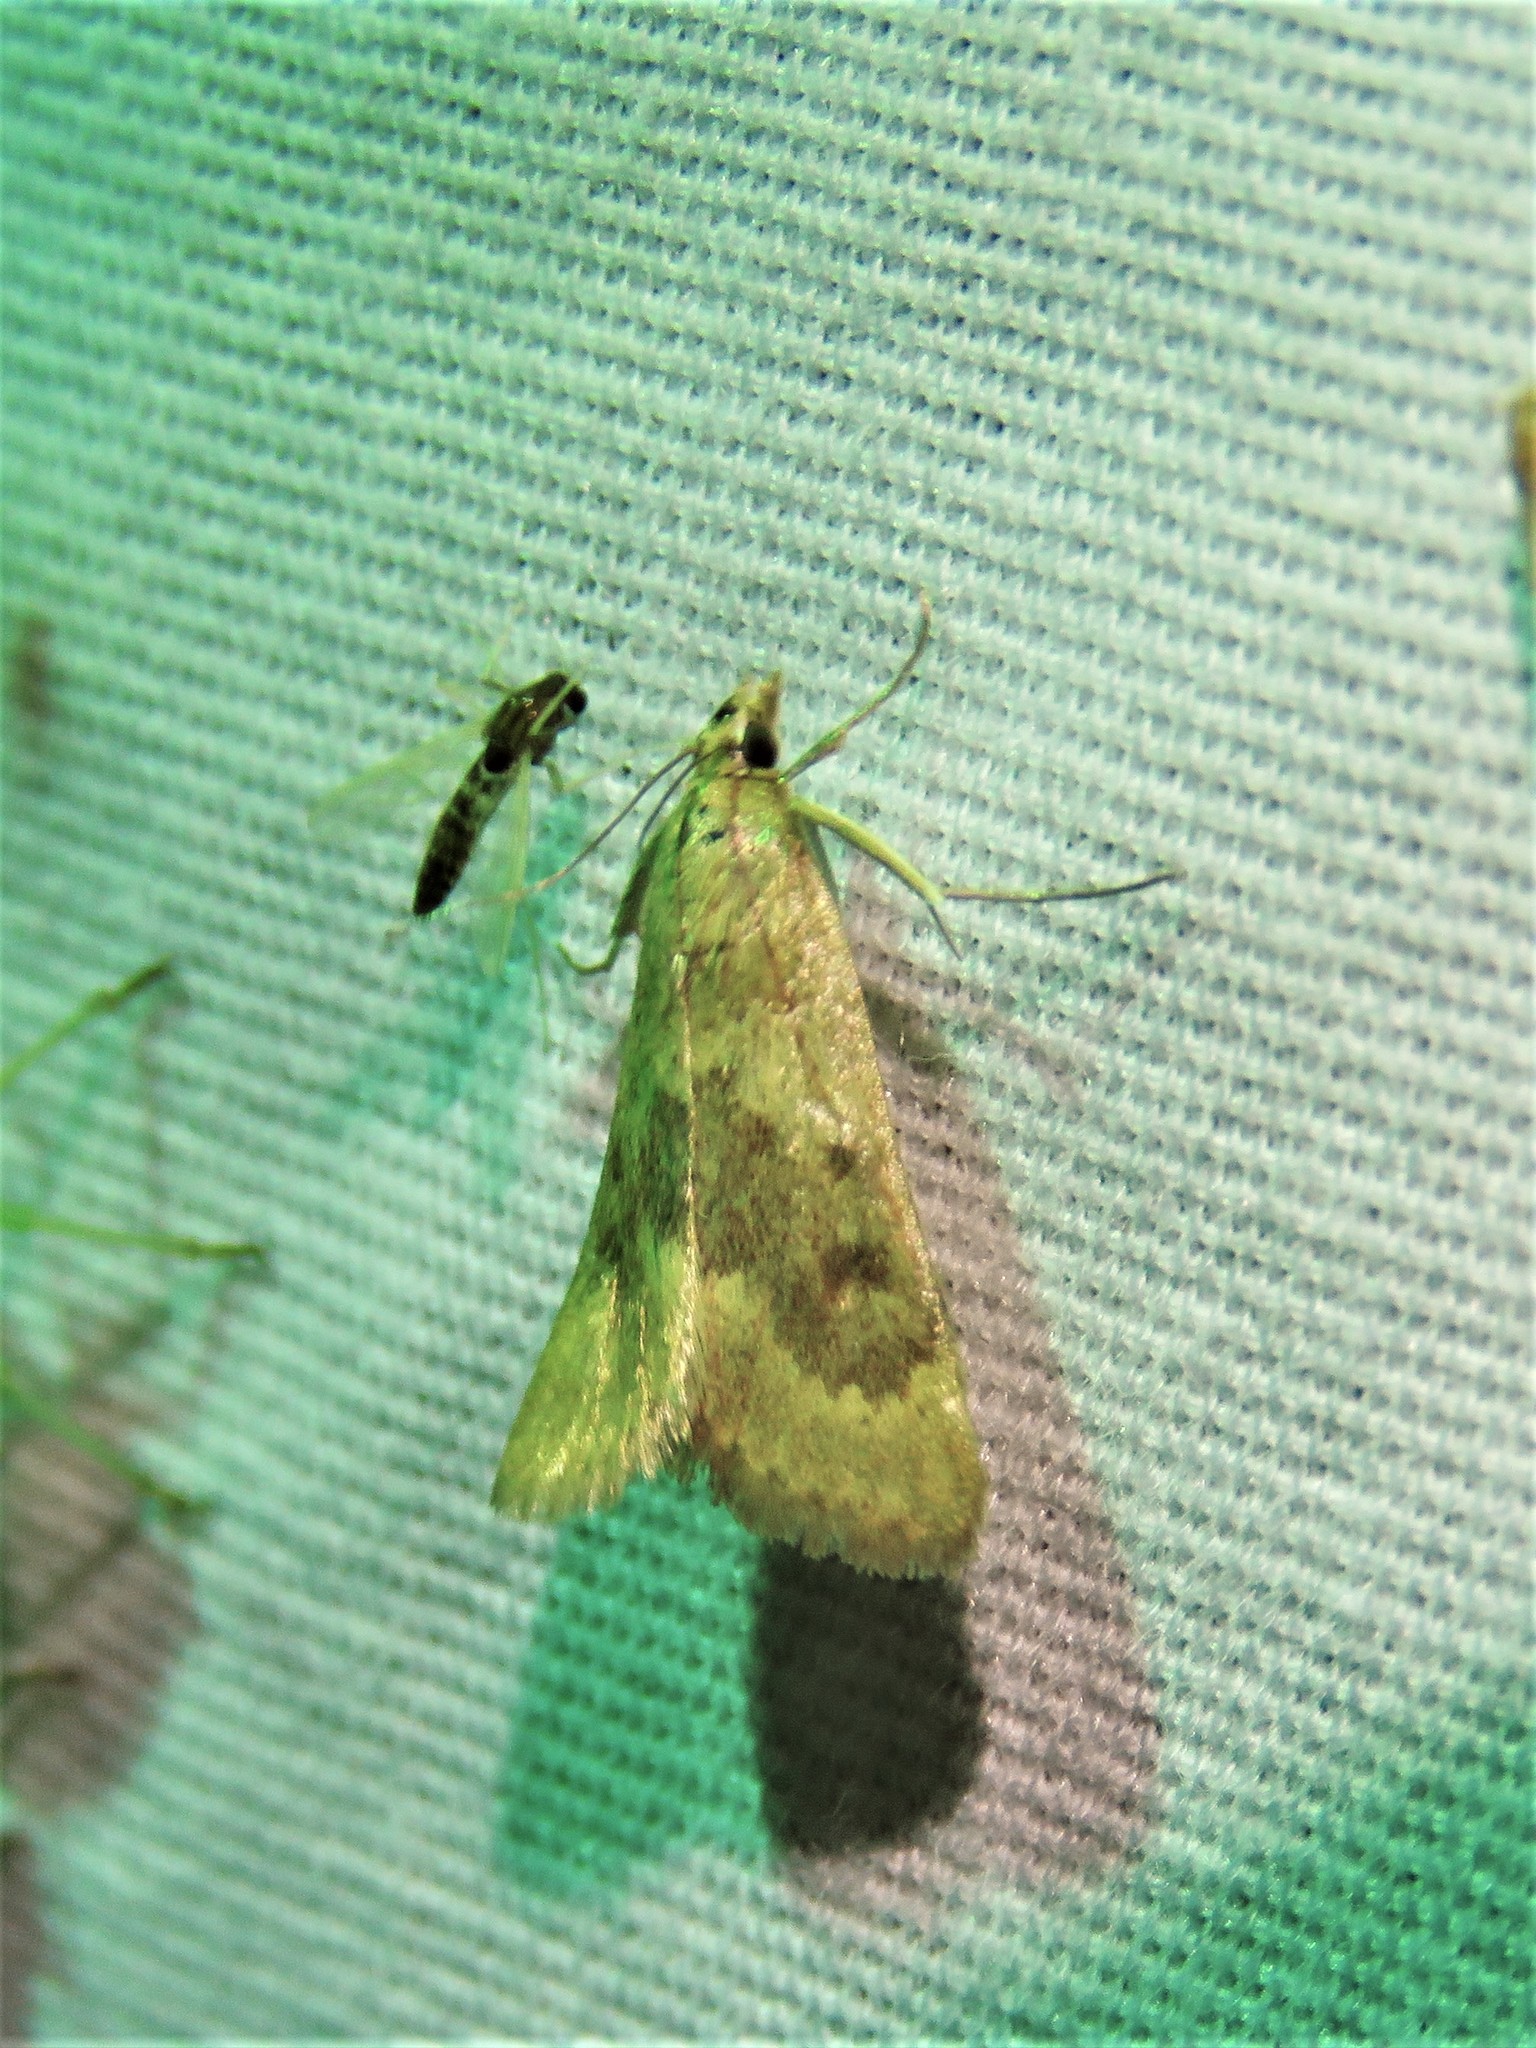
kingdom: Animalia
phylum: Arthropoda
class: Insecta
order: Lepidoptera
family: Crambidae
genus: Achyra
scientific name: Achyra rantalis
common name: Garden webworm
